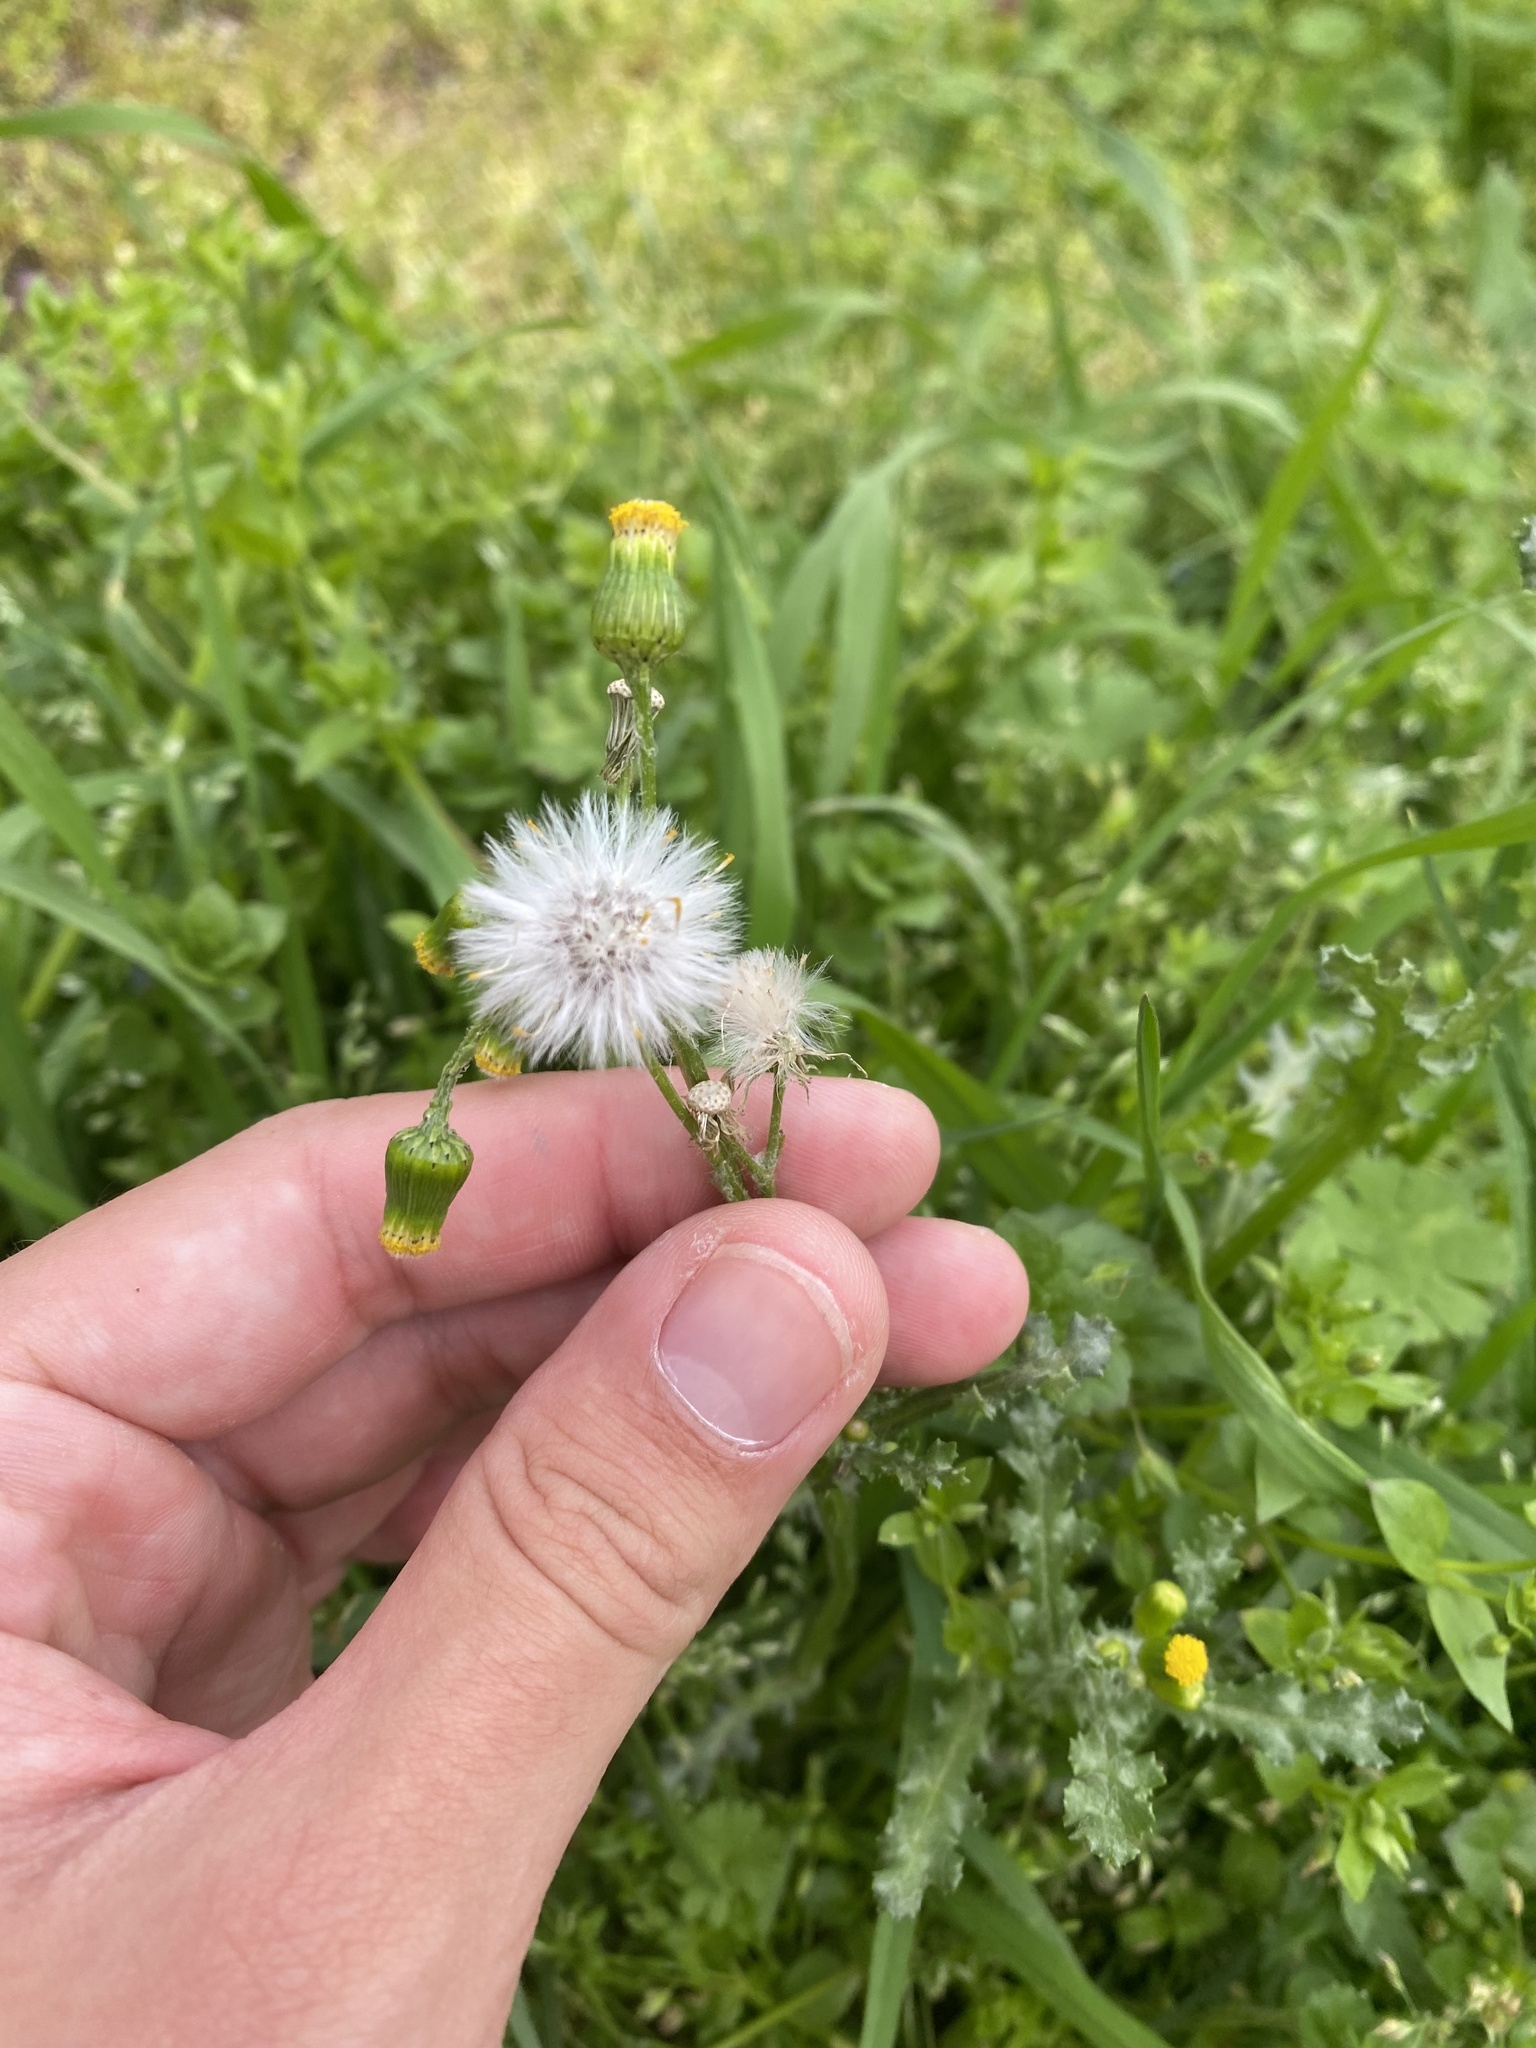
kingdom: Plantae
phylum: Tracheophyta
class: Magnoliopsida
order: Asterales
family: Asteraceae
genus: Senecio
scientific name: Senecio vulgaris
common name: Old-man-in-the-spring
